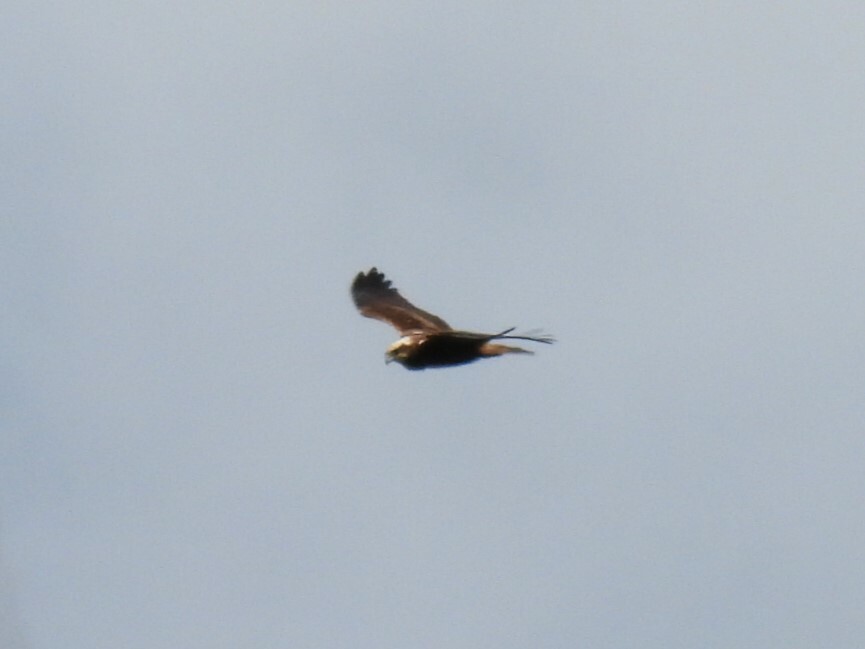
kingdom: Animalia
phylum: Chordata
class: Aves
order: Accipitriformes
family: Accipitridae
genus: Circus
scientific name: Circus aeruginosus
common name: Western marsh harrier
